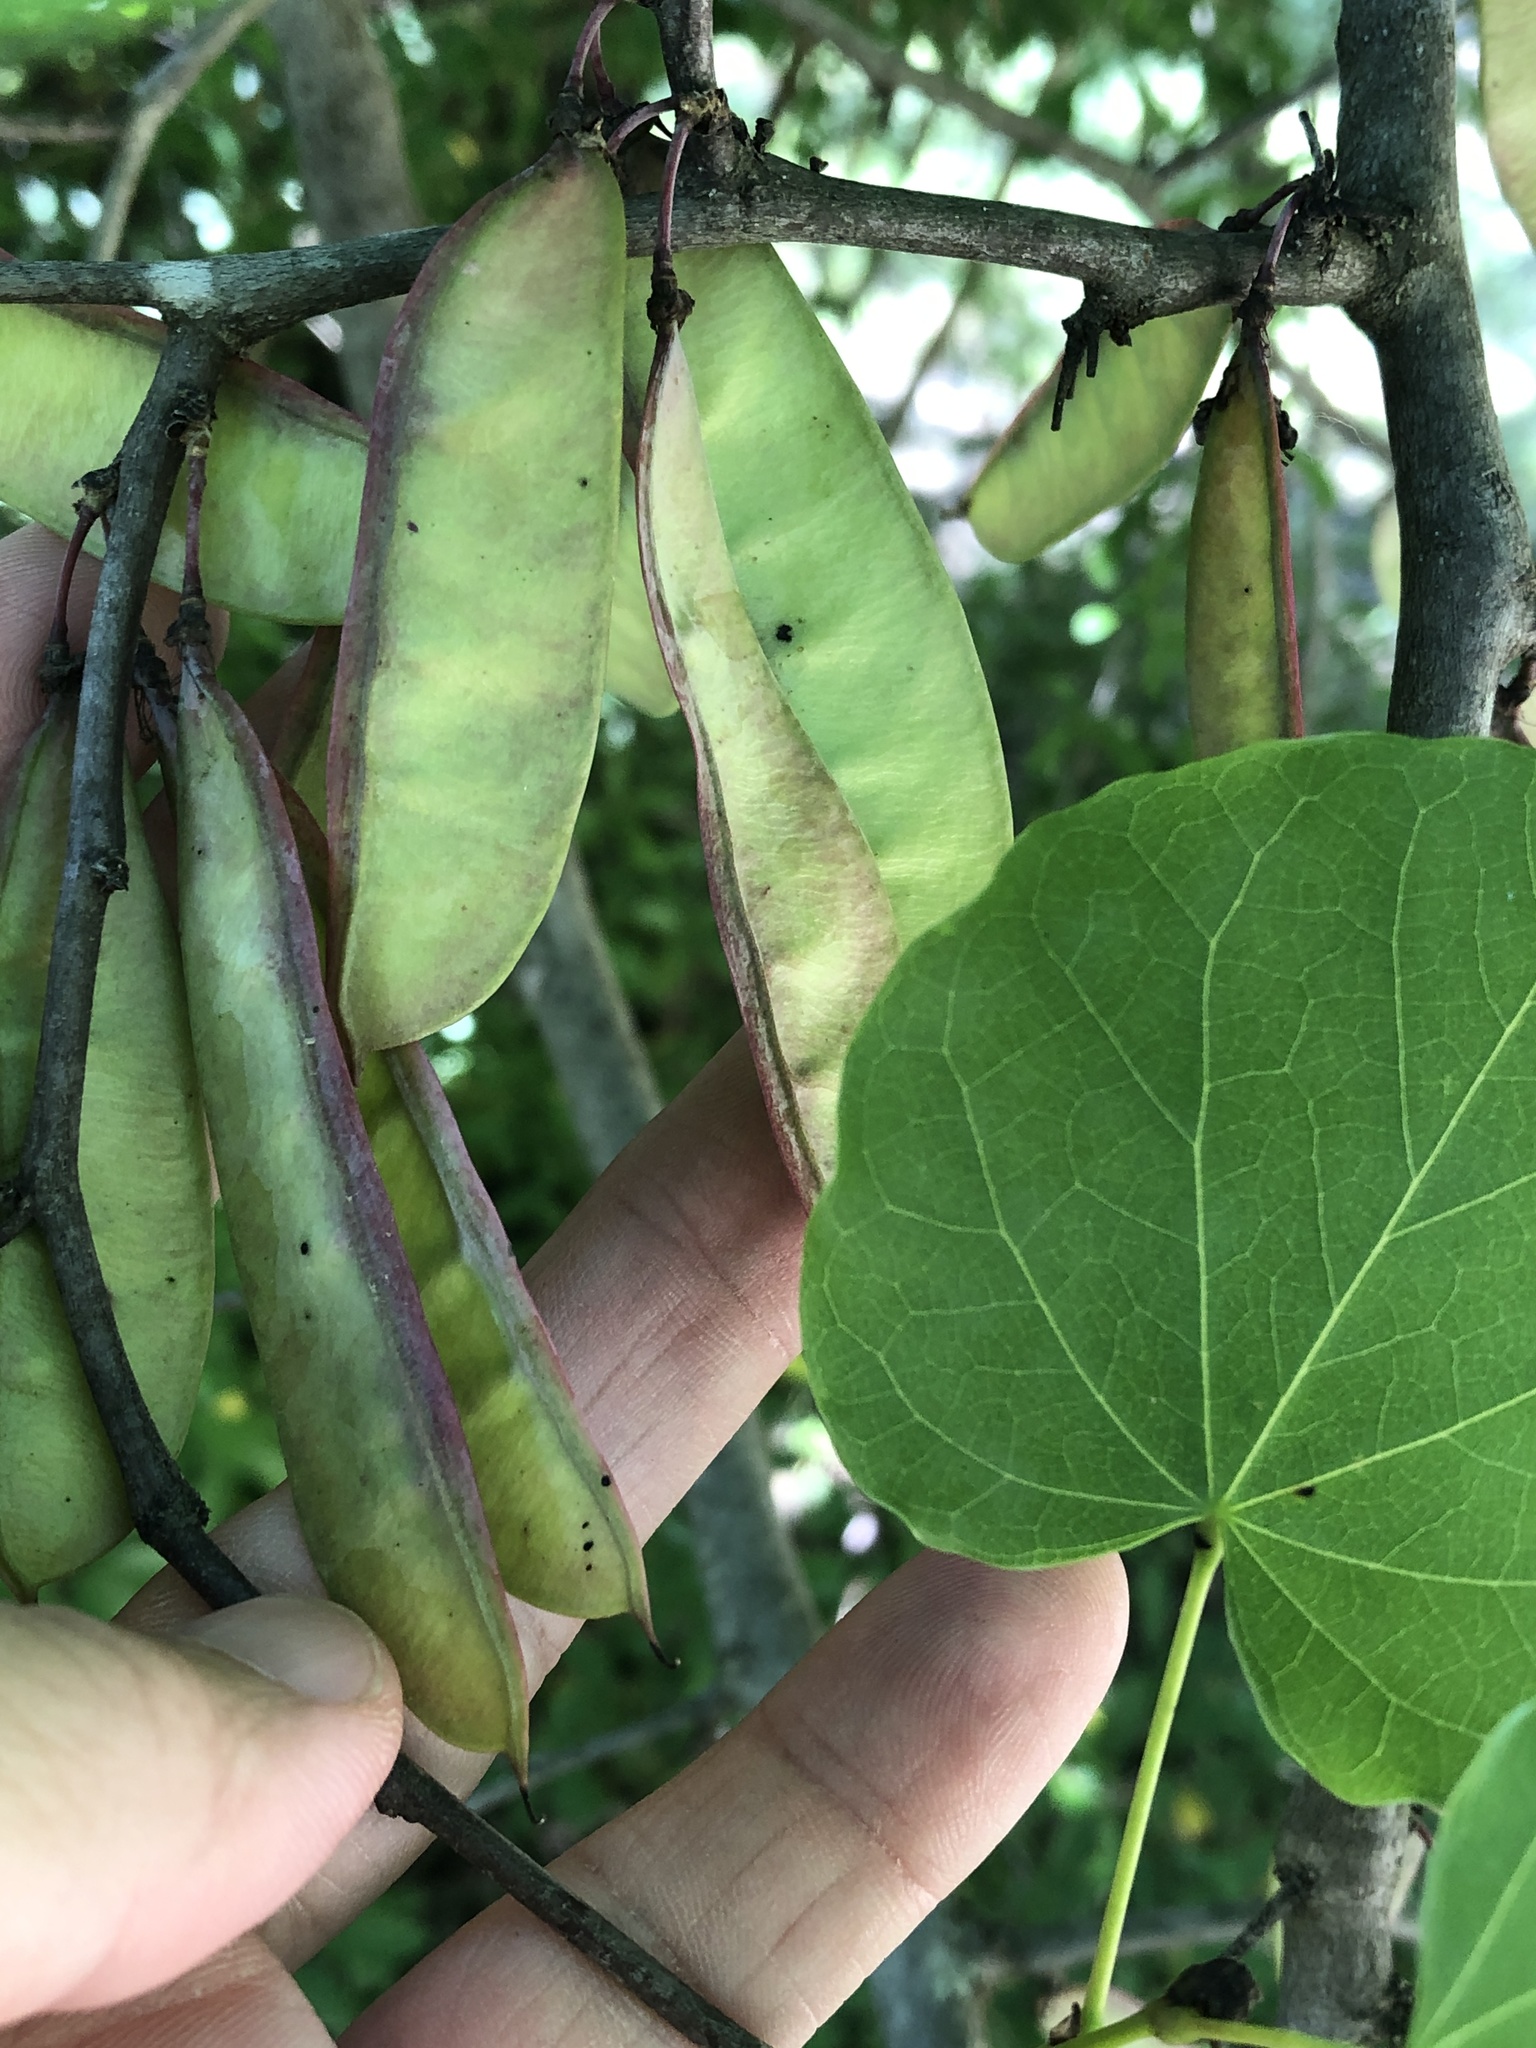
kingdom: Plantae
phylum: Tracheophyta
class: Magnoliopsida
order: Fabales
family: Fabaceae
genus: Cercis
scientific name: Cercis canadensis
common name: Eastern redbud
